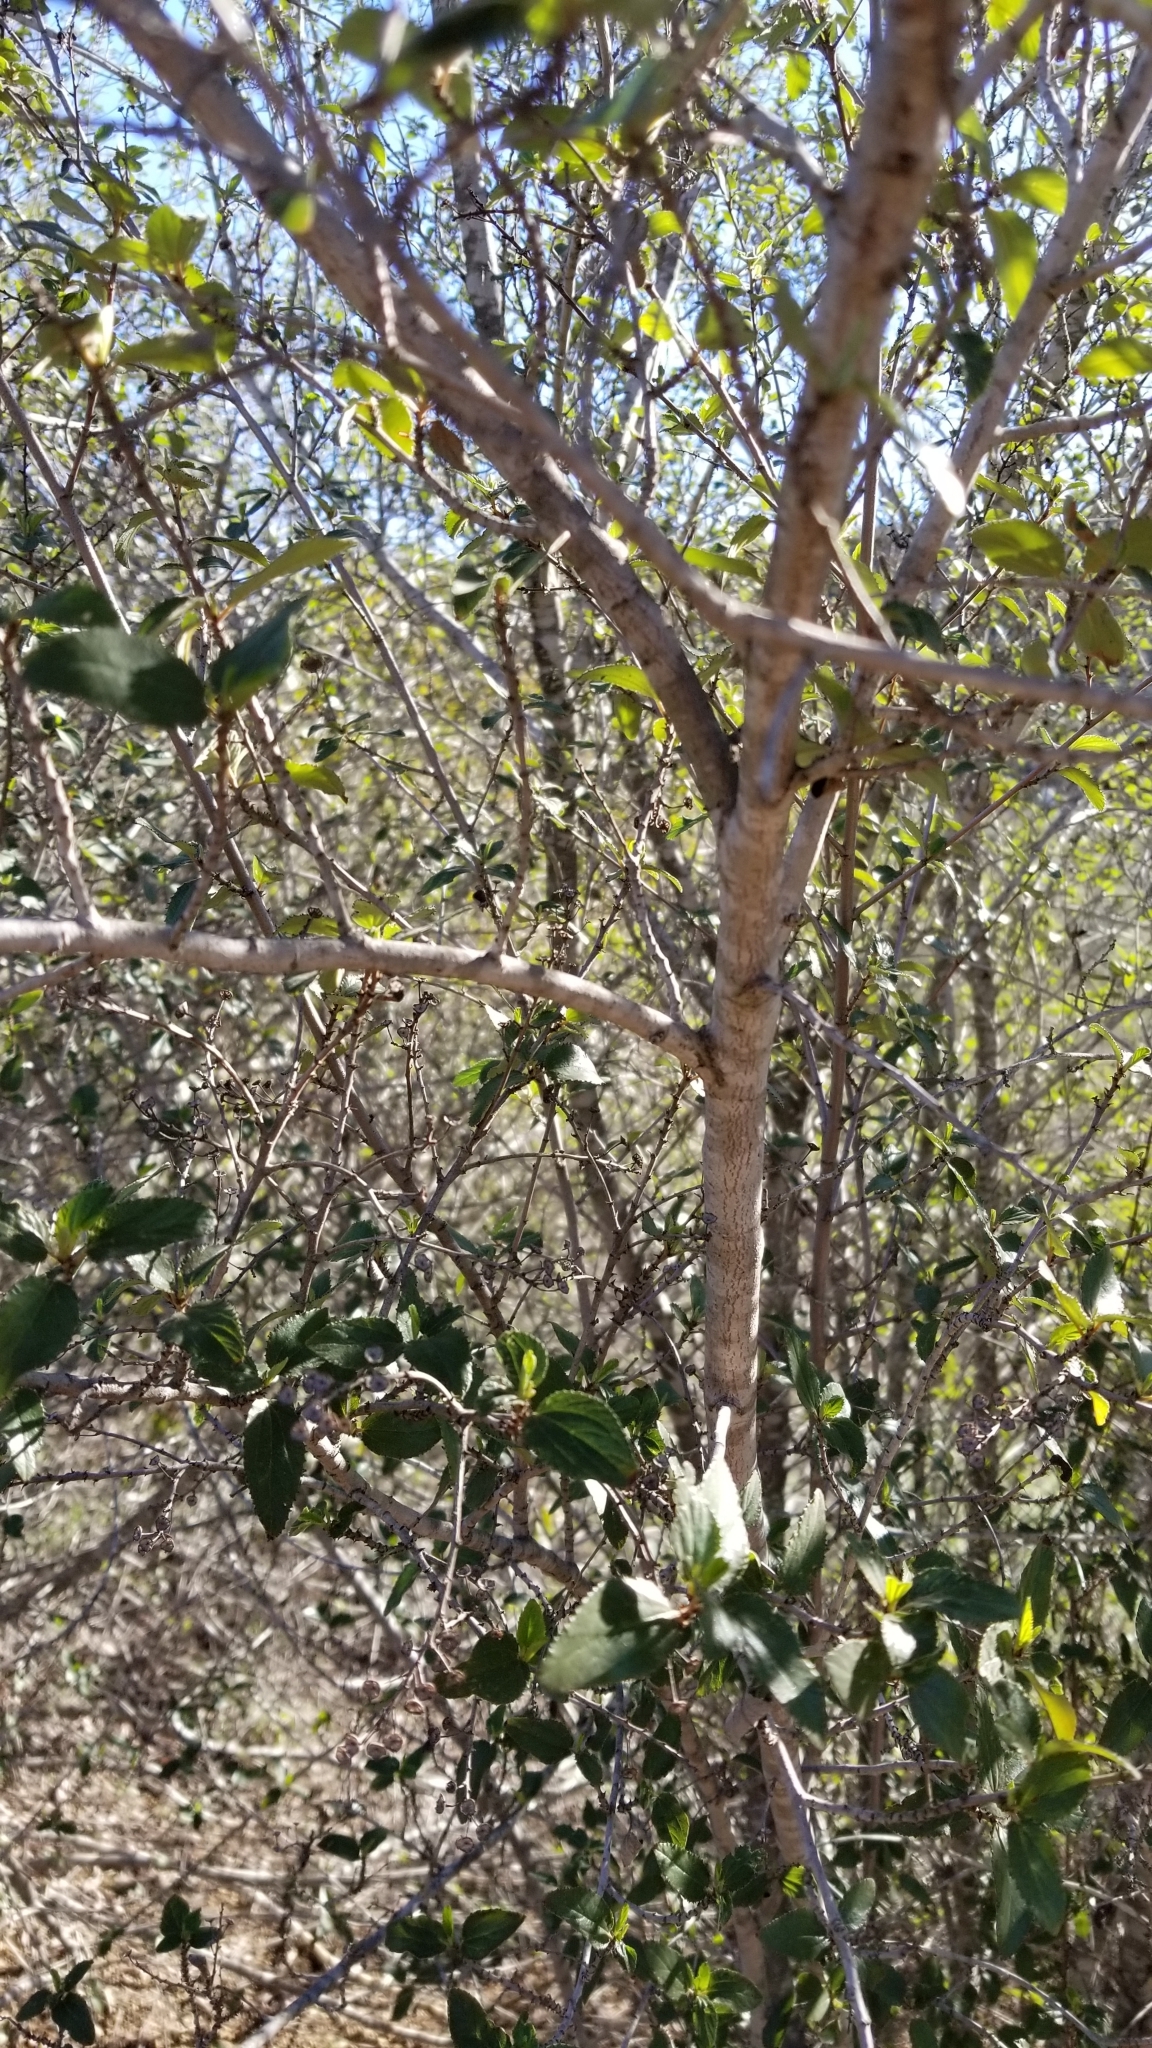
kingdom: Plantae
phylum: Tracheophyta
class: Magnoliopsida
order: Rosales
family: Rhamnaceae
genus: Ceanothus
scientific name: Ceanothus tomentosus
